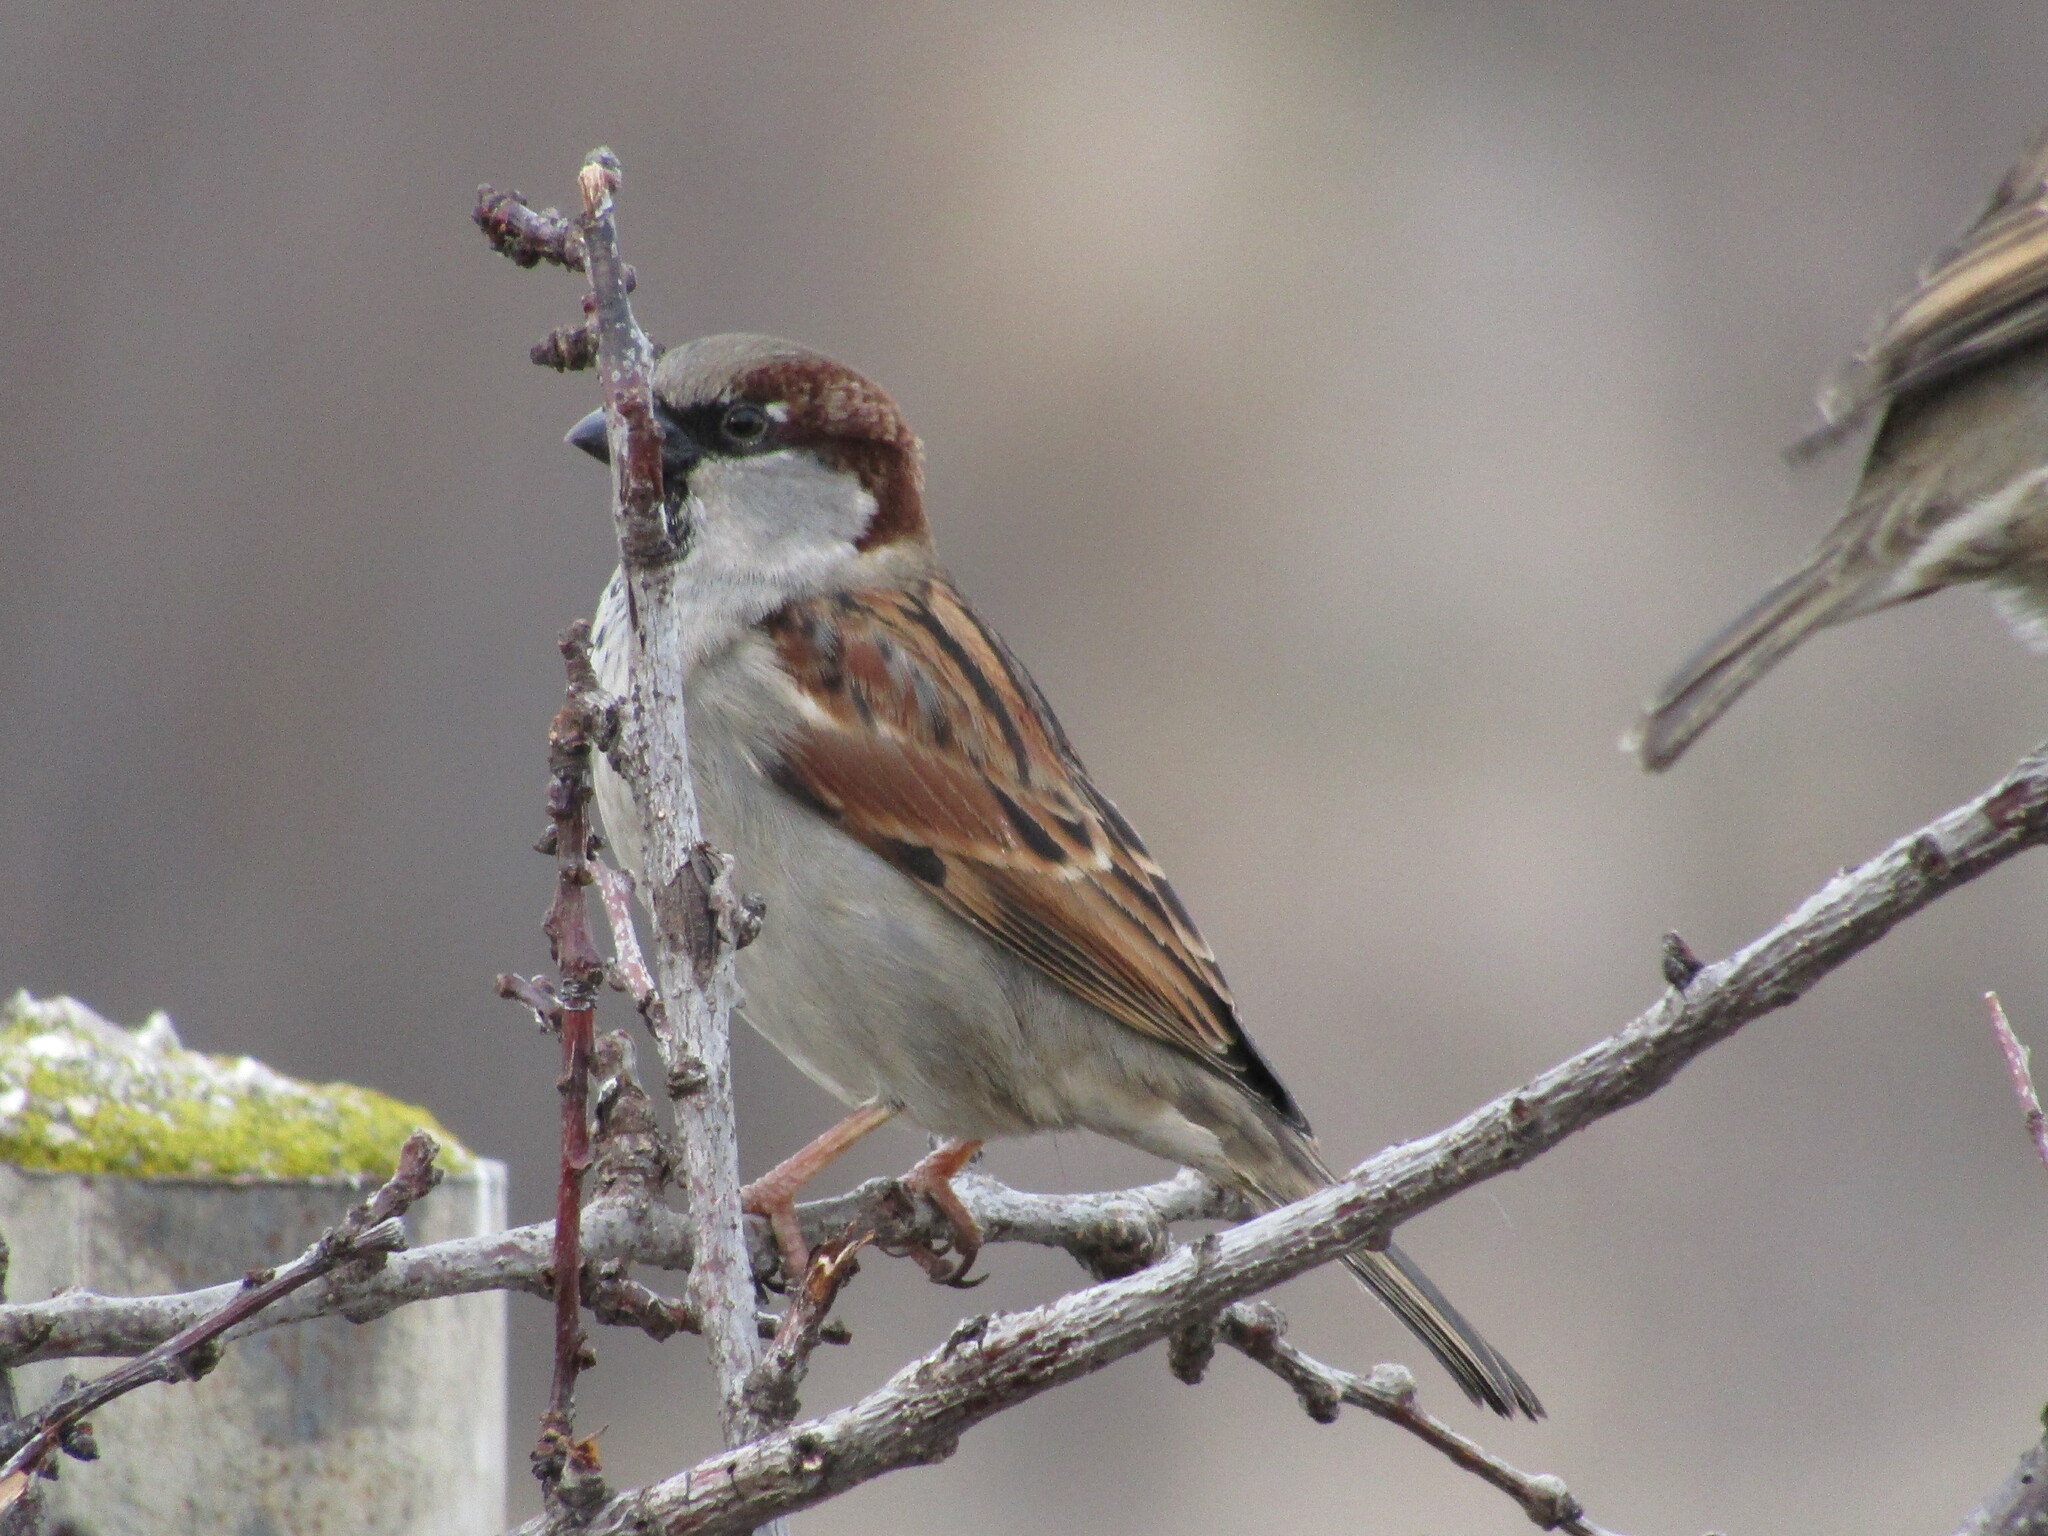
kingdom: Animalia
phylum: Chordata
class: Aves
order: Passeriformes
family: Passeridae
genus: Passer
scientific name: Passer domesticus
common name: House sparrow
